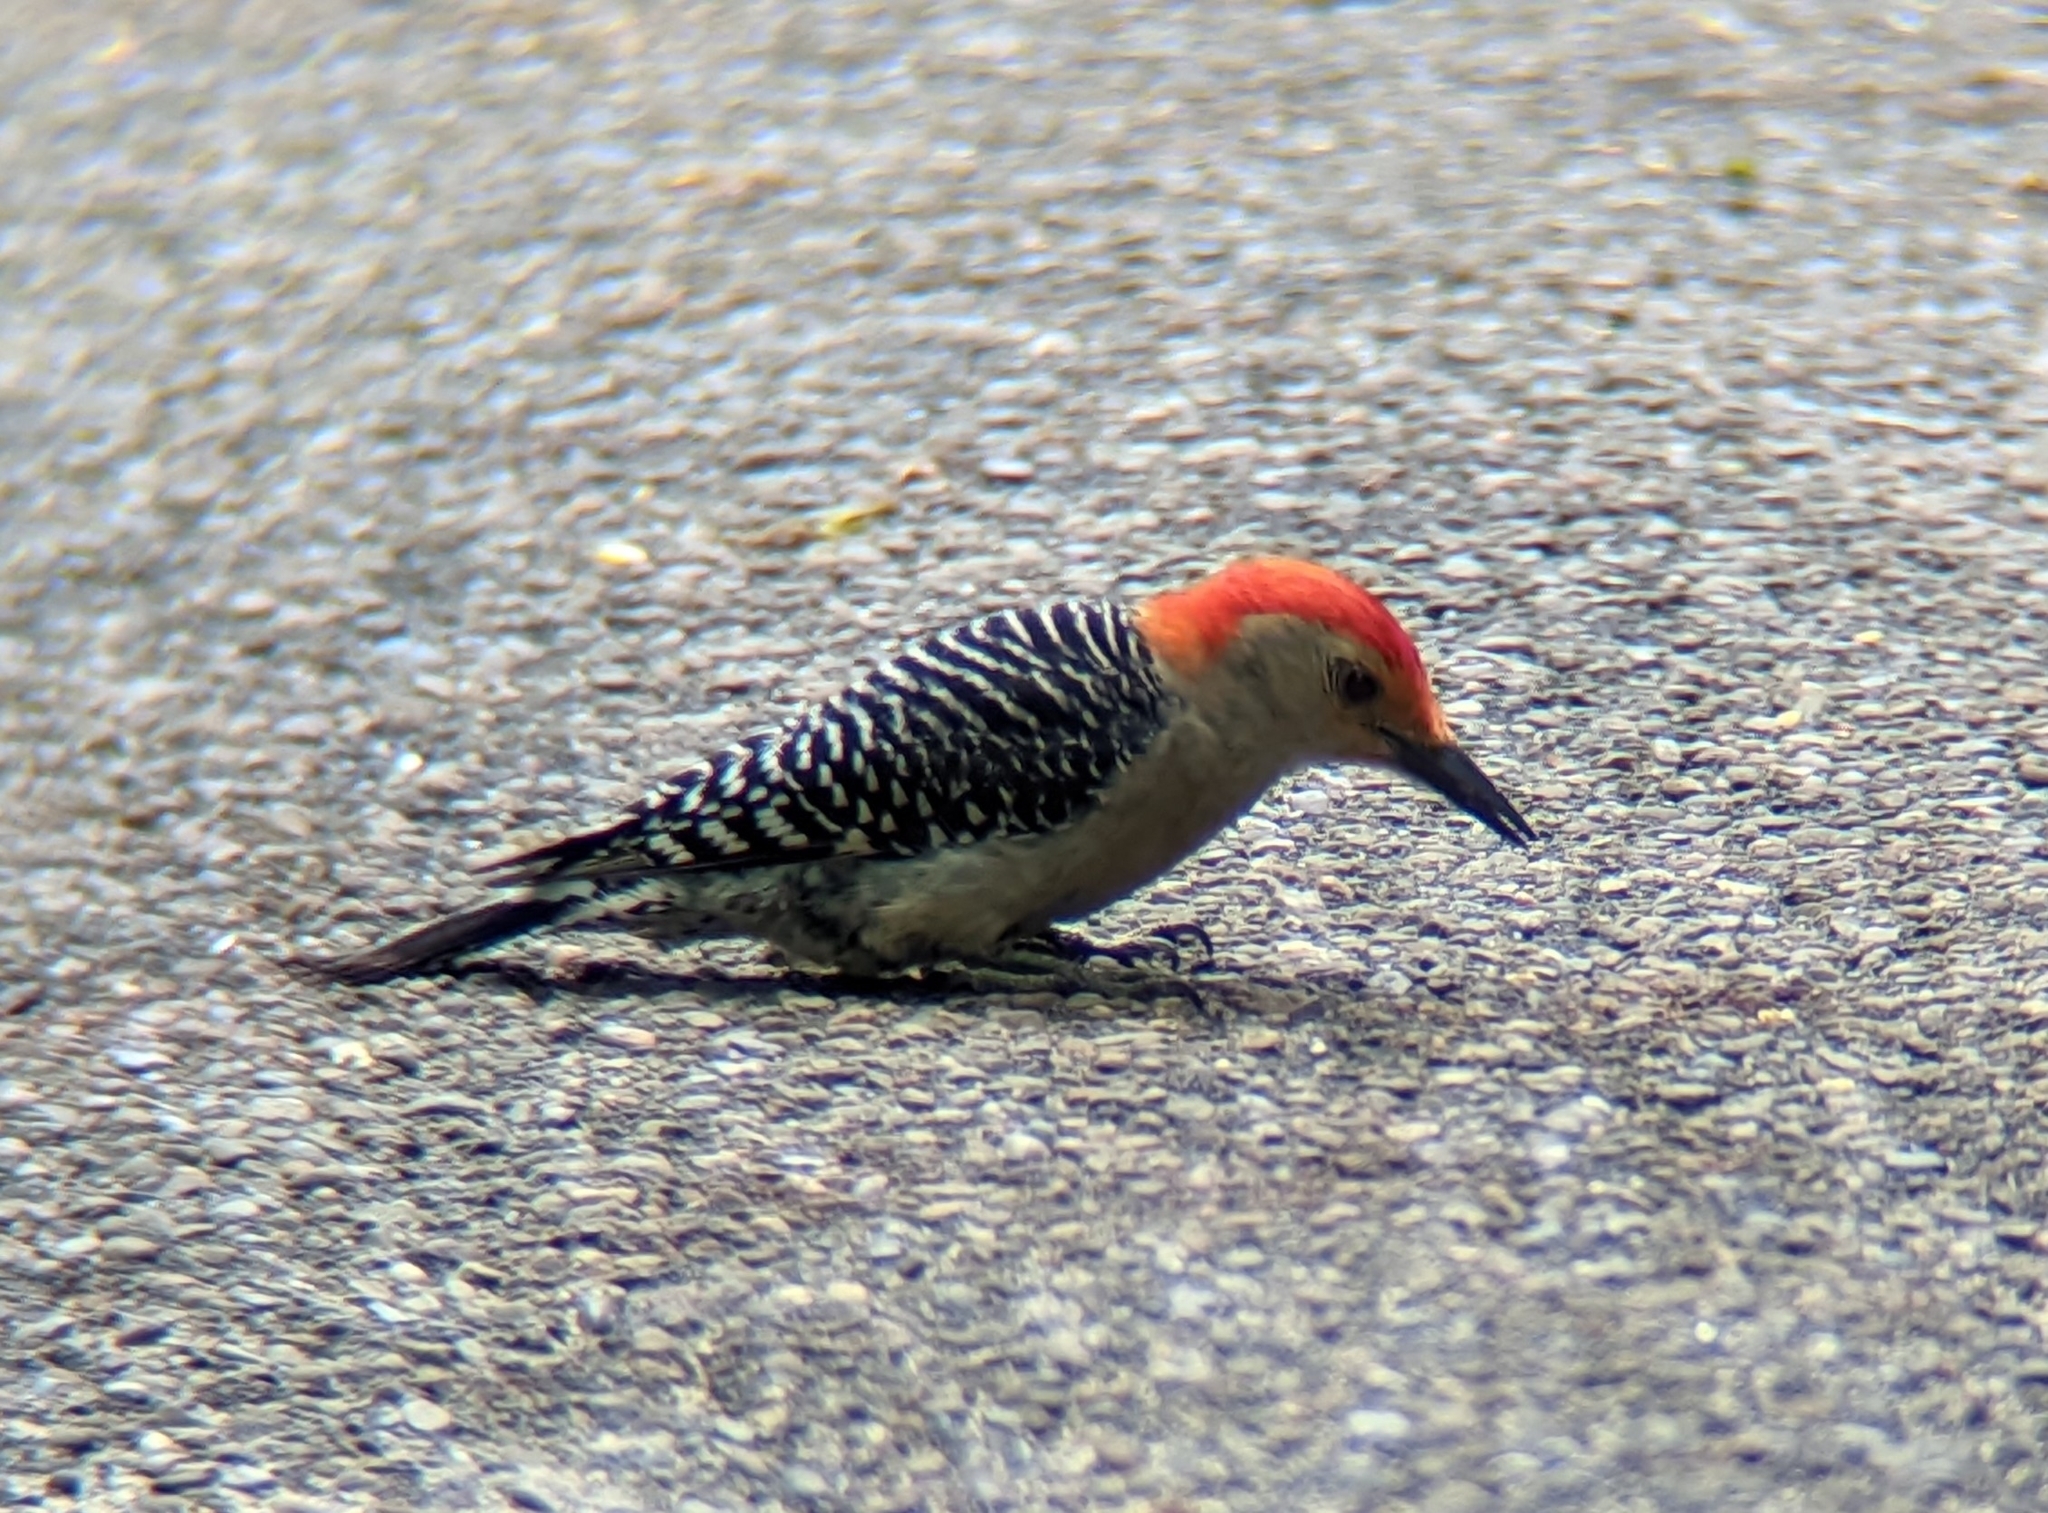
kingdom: Animalia
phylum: Chordata
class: Aves
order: Piciformes
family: Picidae
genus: Melanerpes
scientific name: Melanerpes carolinus
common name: Red-bellied woodpecker
